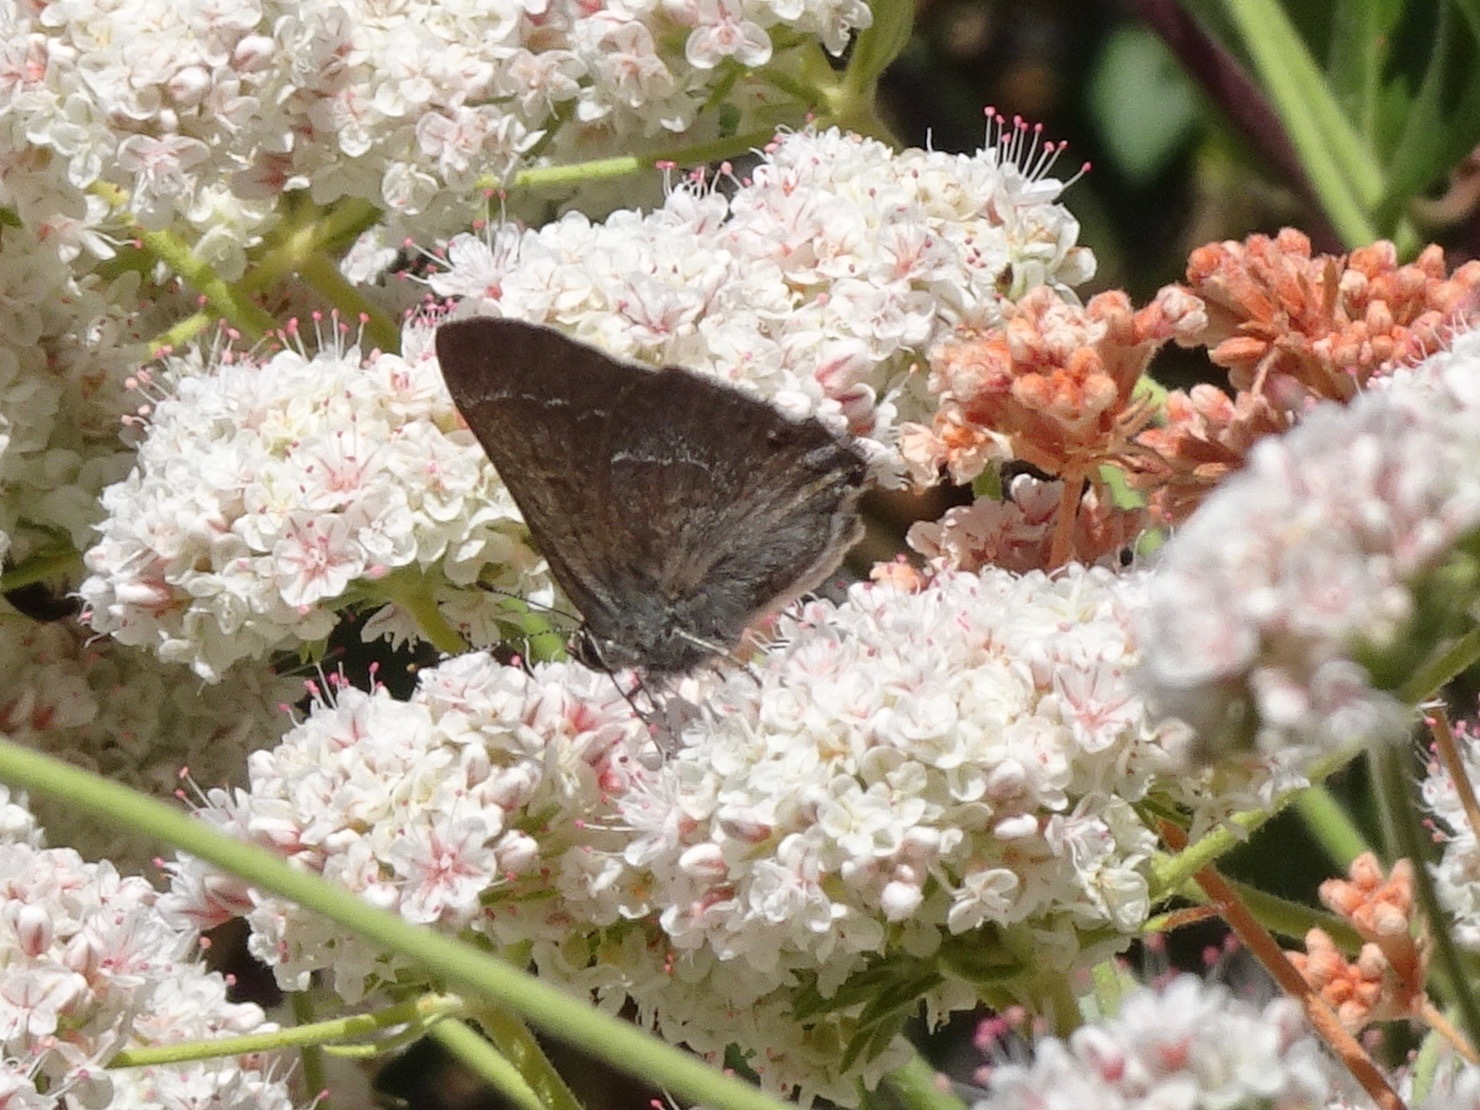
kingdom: Animalia
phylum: Arthropoda
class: Insecta
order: Lepidoptera
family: Lycaenidae
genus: Thecla
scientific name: Thecla tetra
